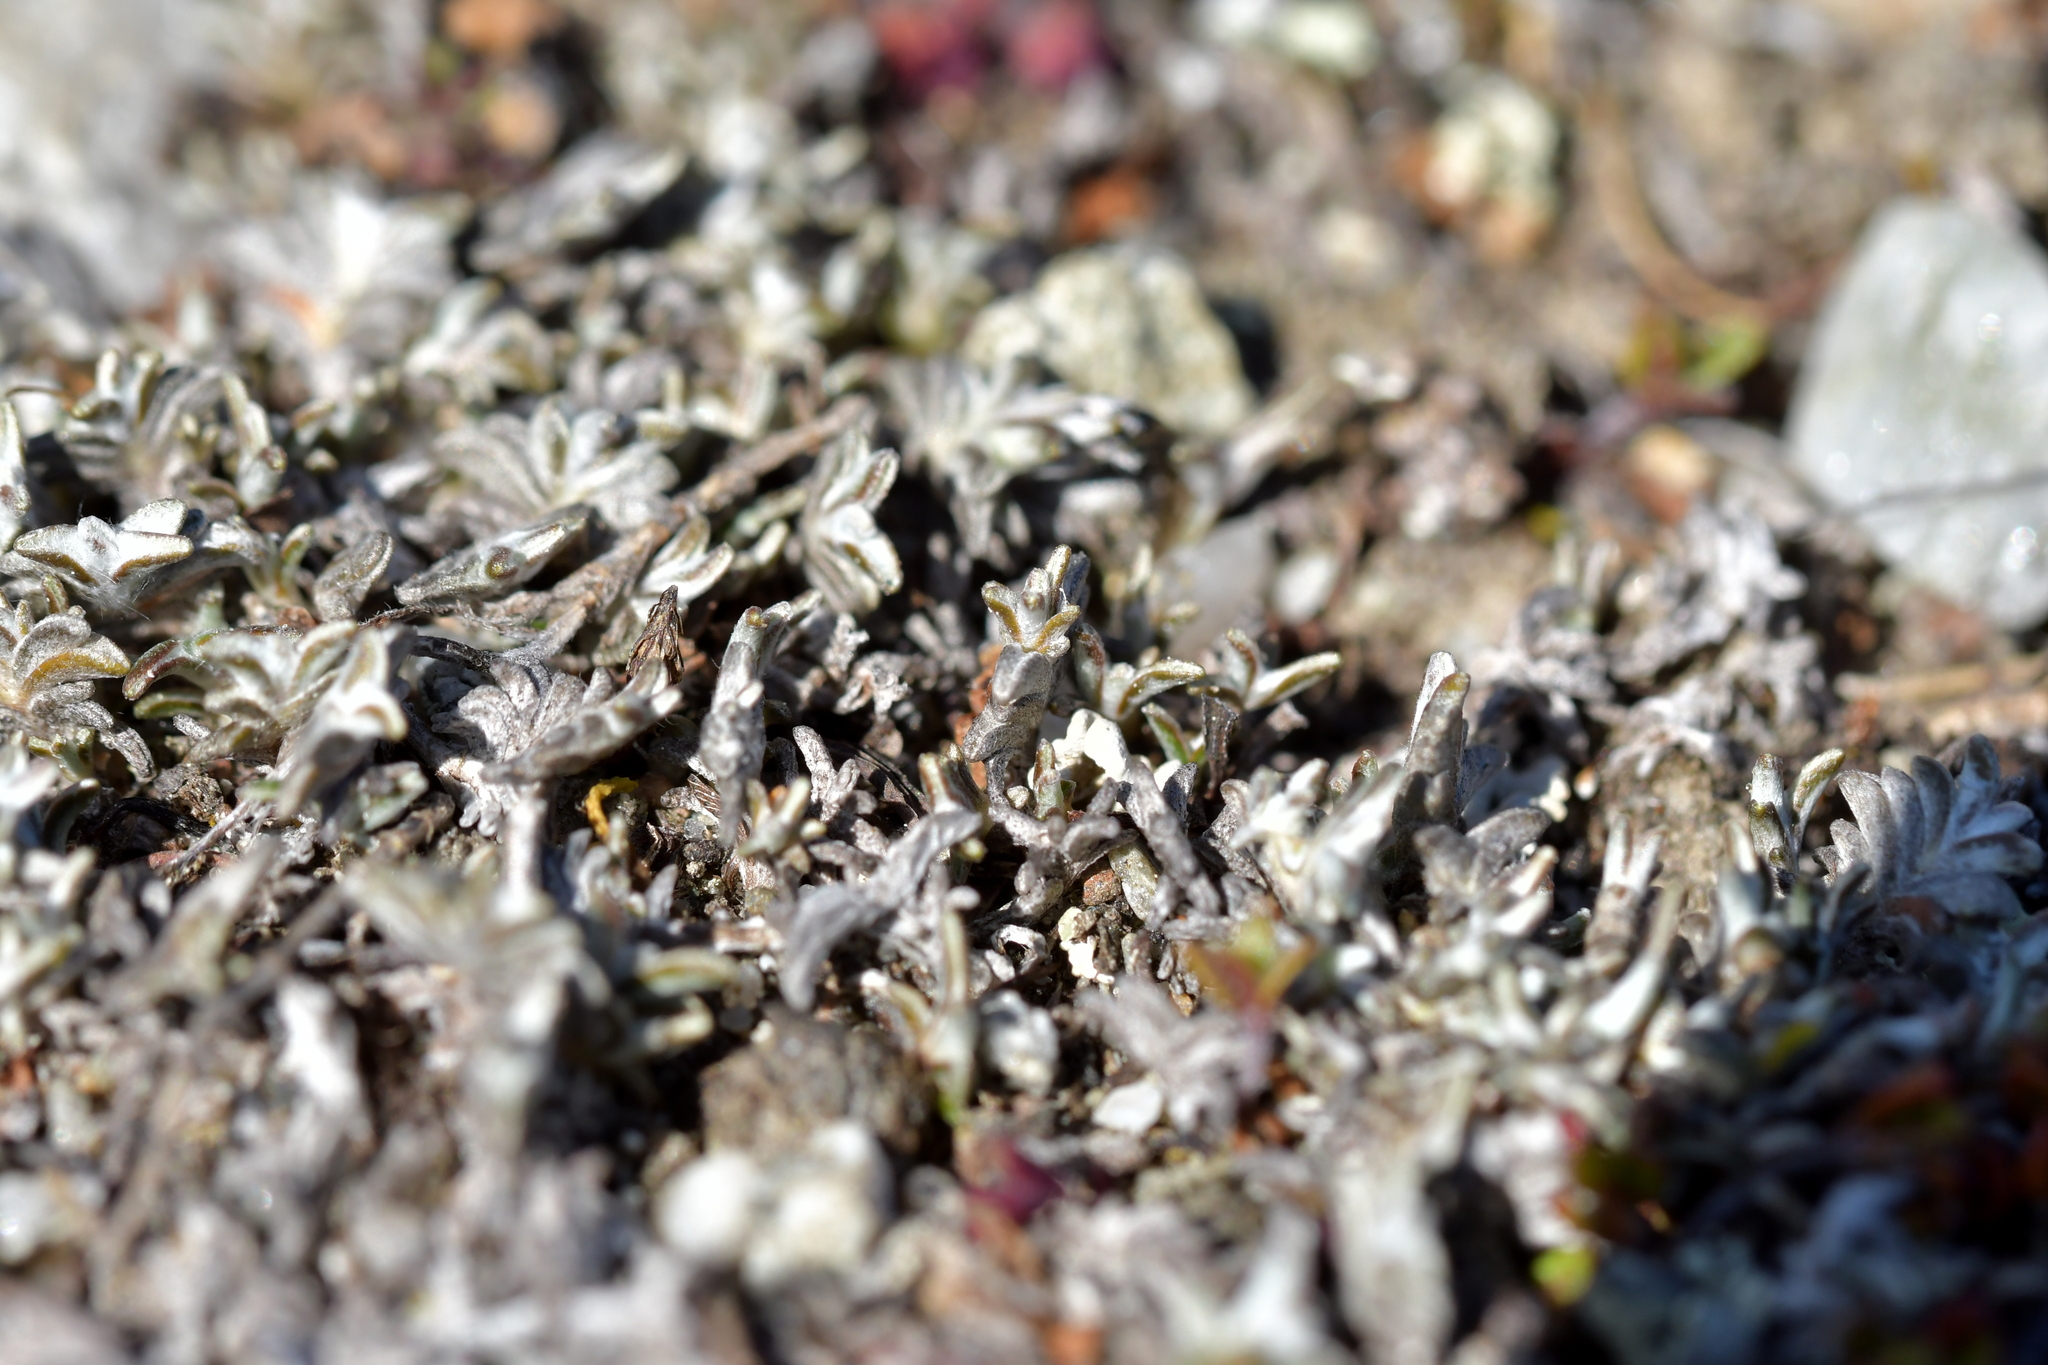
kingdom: Plantae
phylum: Tracheophyta
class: Magnoliopsida
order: Asterales
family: Asteraceae
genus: Raoulia
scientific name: Raoulia monroi
